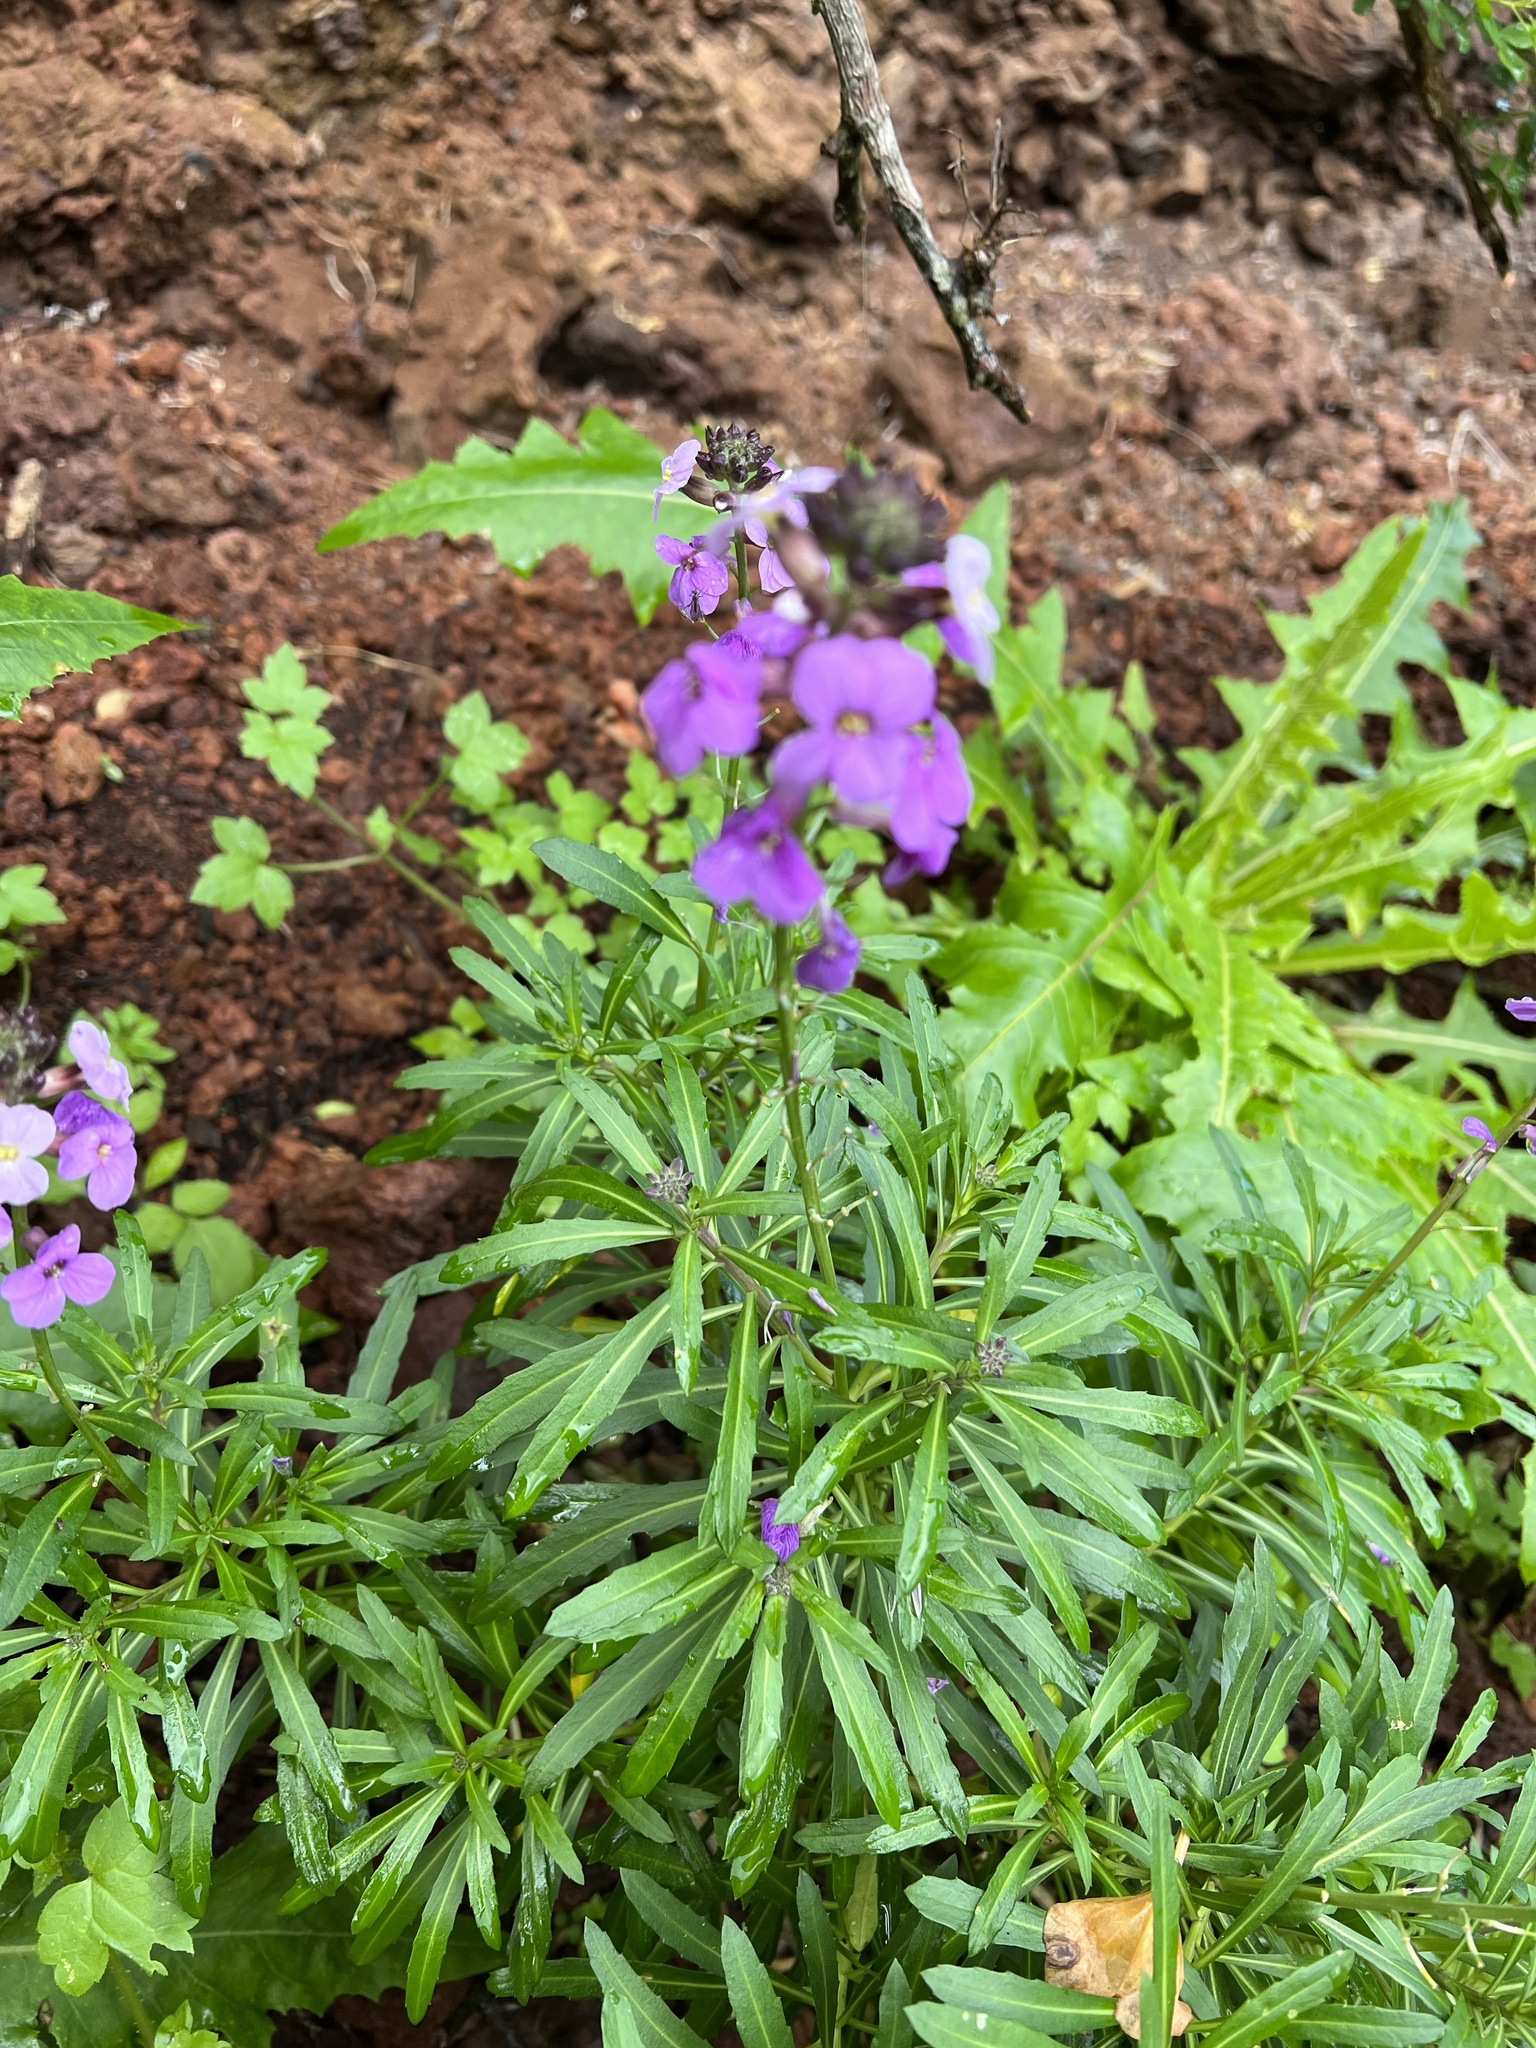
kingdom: Plantae
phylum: Tracheophyta
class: Magnoliopsida
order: Brassicales
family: Brassicaceae
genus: Erysimum
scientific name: Erysimum bicolor
